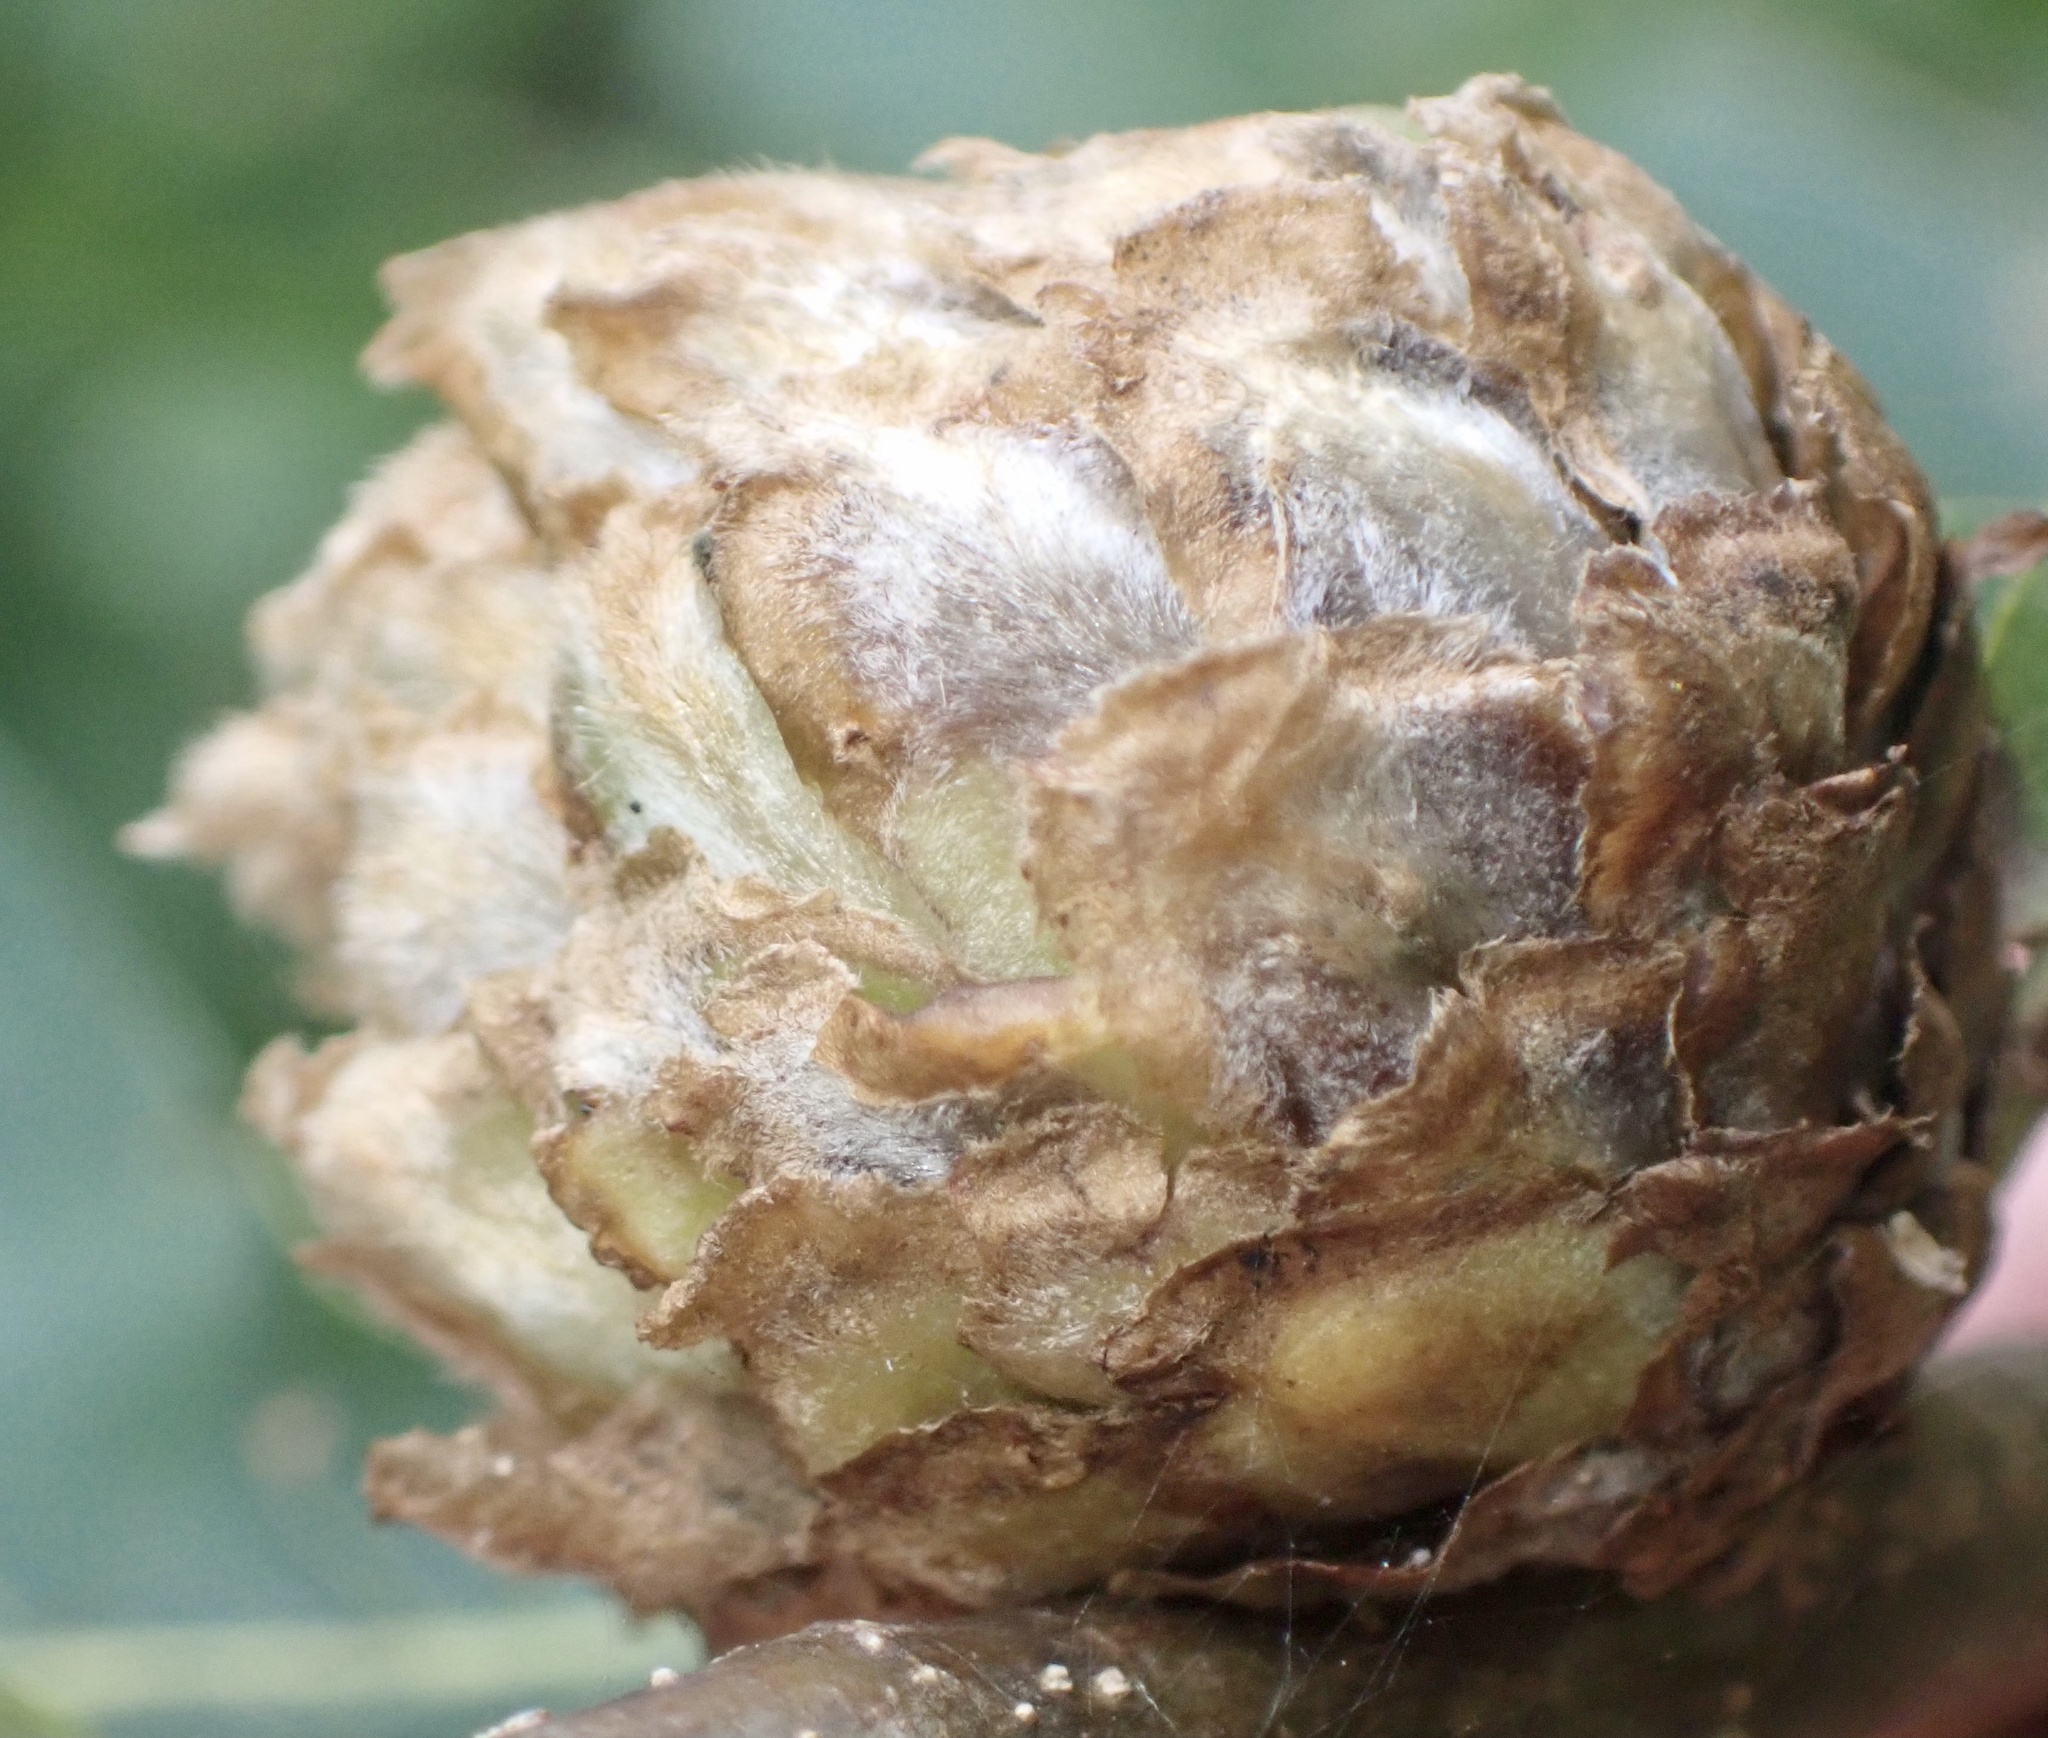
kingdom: Animalia
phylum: Arthropoda
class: Insecta
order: Hymenoptera
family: Cynipidae
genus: Andricus
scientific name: Andricus foecundatrix
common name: Artichoke gall
